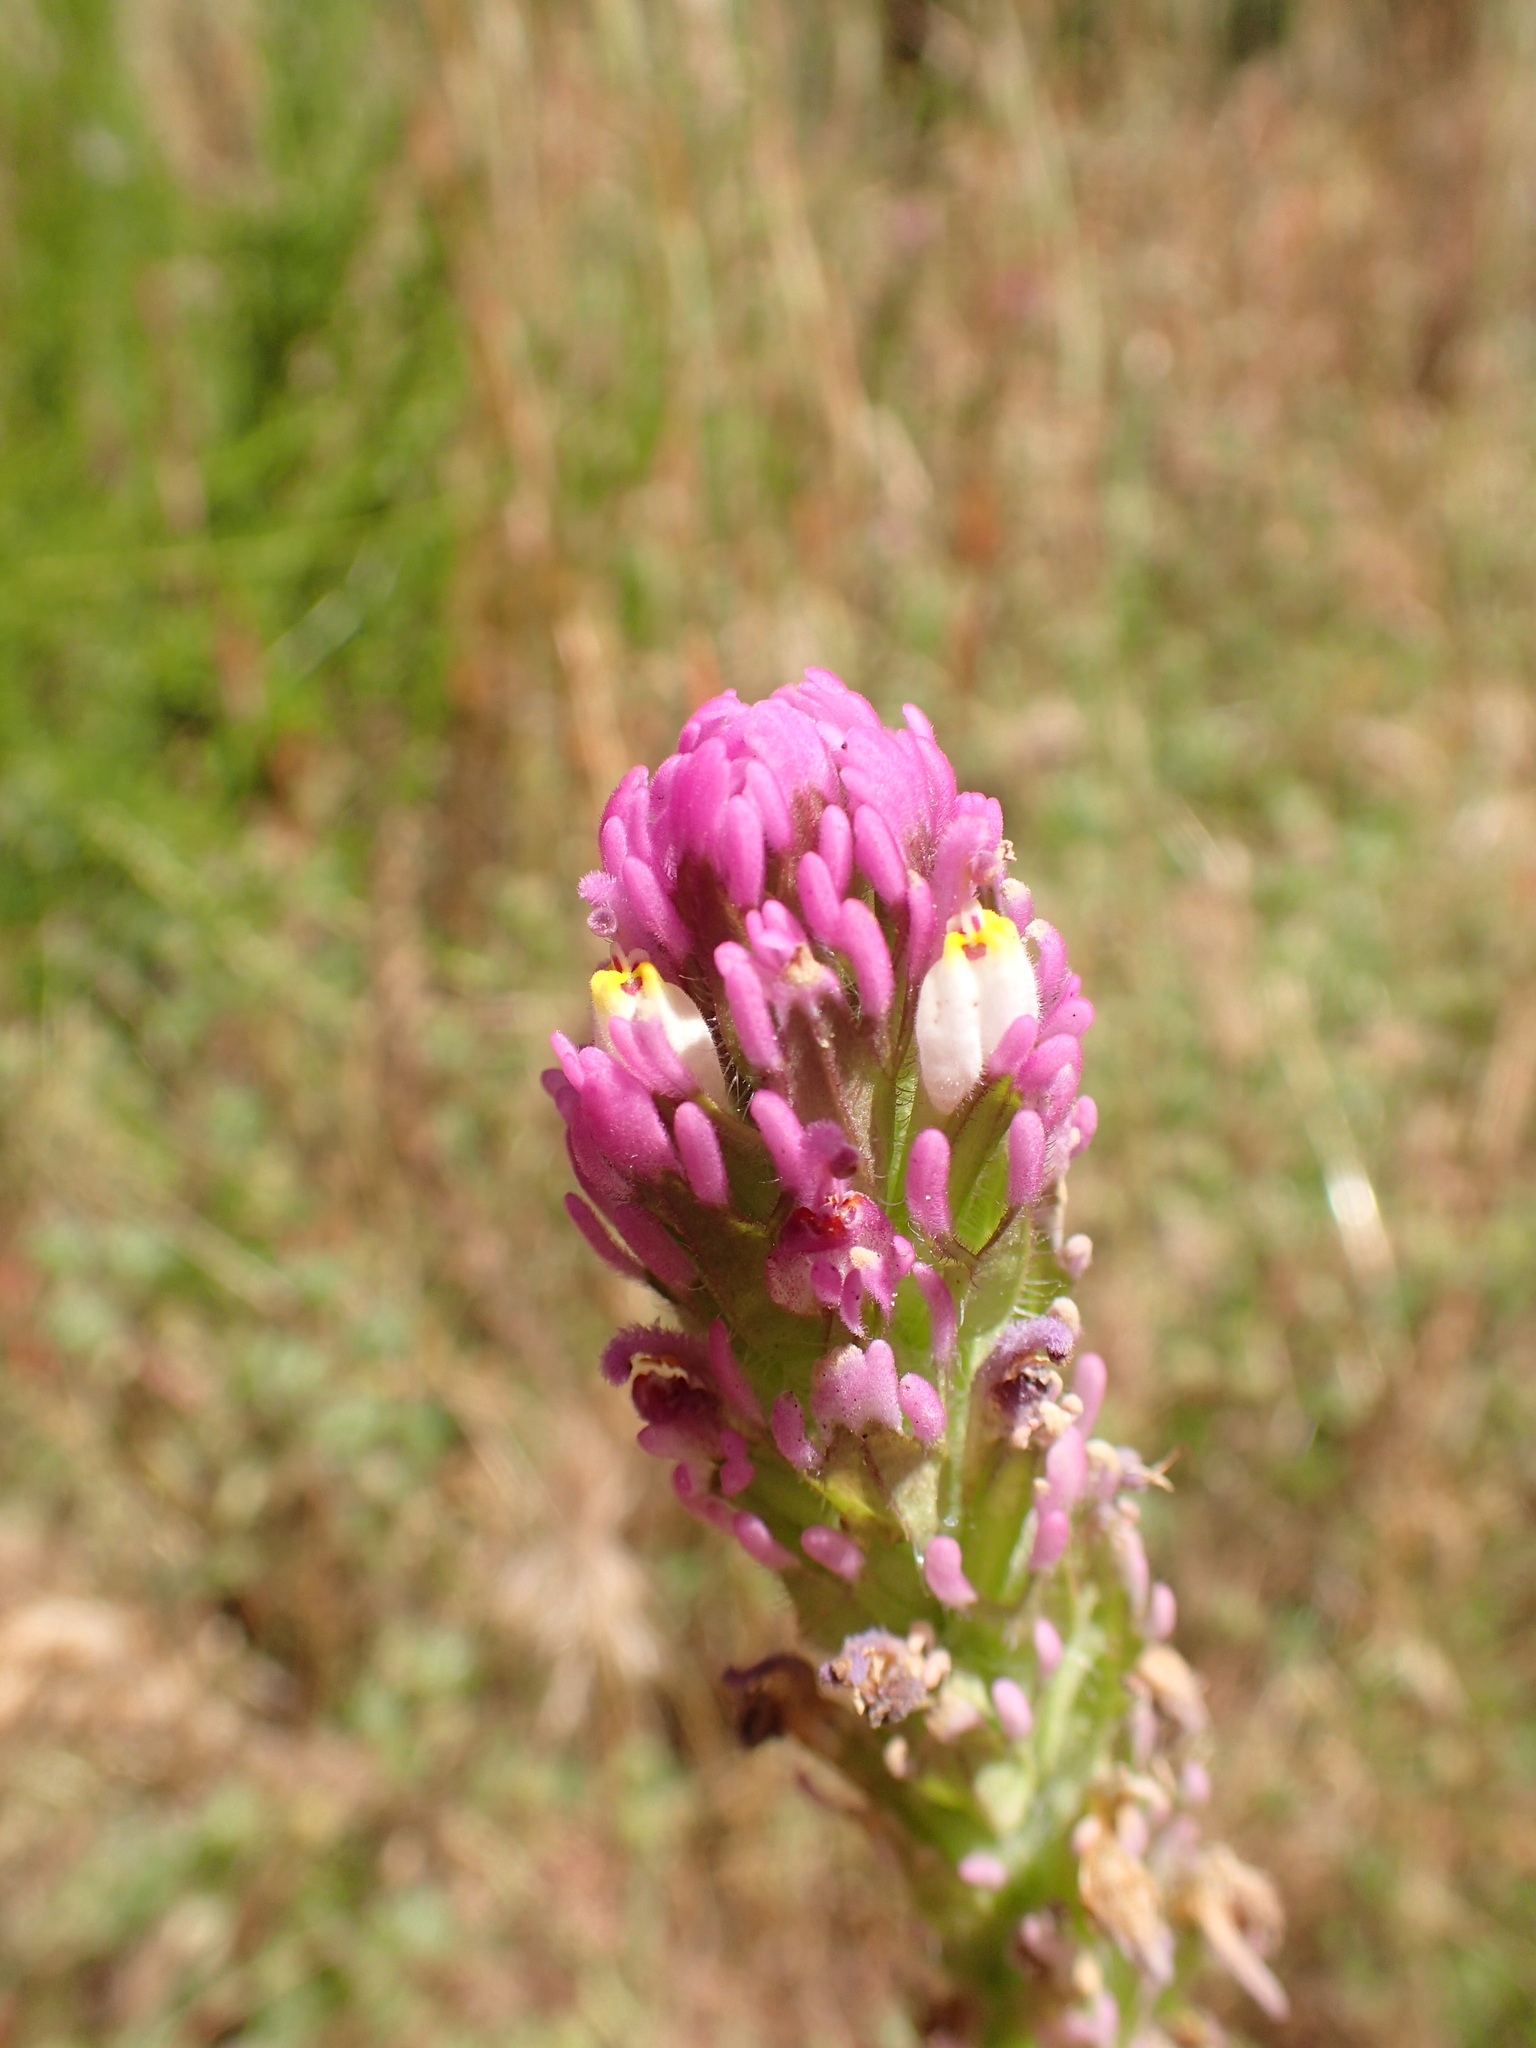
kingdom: Plantae
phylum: Tracheophyta
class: Magnoliopsida
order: Lamiales
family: Orobanchaceae
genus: Castilleja
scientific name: Castilleja exserta
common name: Purple owl-clover
